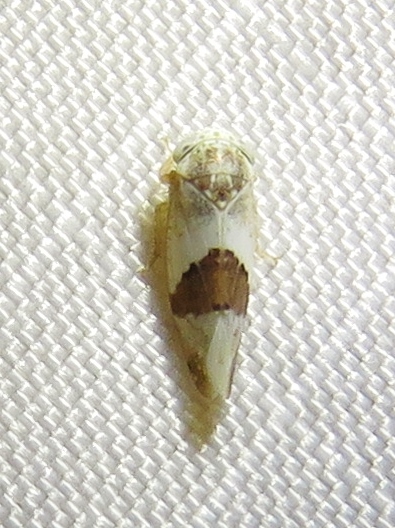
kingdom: Animalia
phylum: Arthropoda
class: Insecta
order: Hemiptera
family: Cicadellidae
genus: Norvellina
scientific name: Norvellina seminuda
